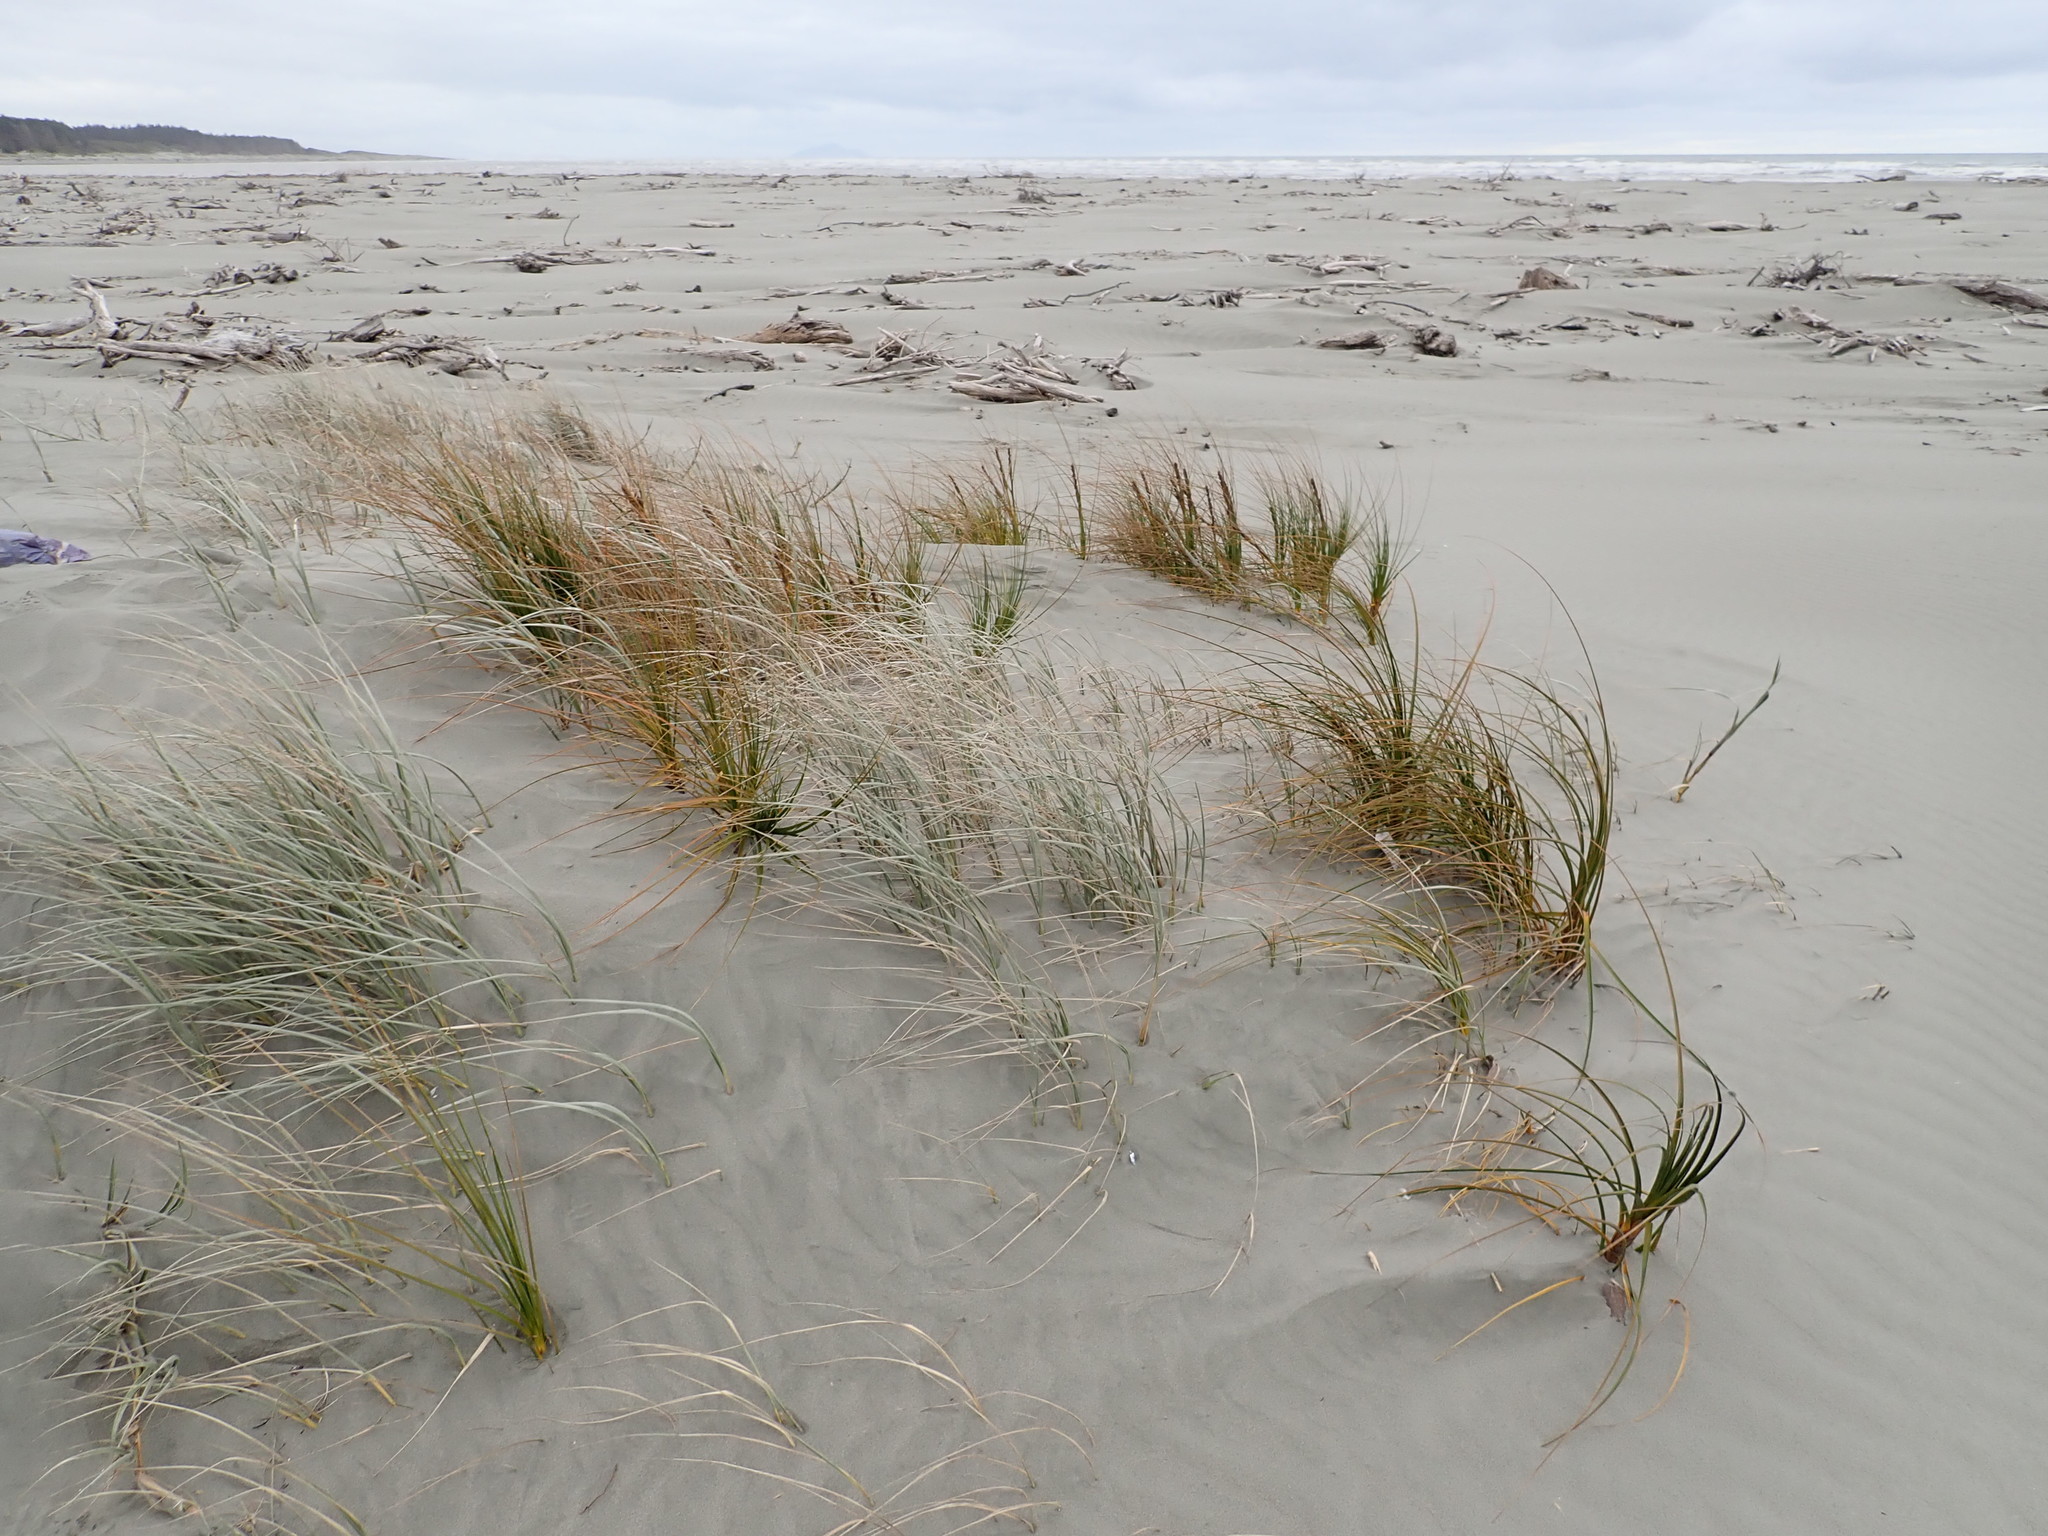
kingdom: Plantae
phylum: Tracheophyta
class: Liliopsida
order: Poales
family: Cyperaceae
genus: Ficinia
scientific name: Ficinia spiralis
